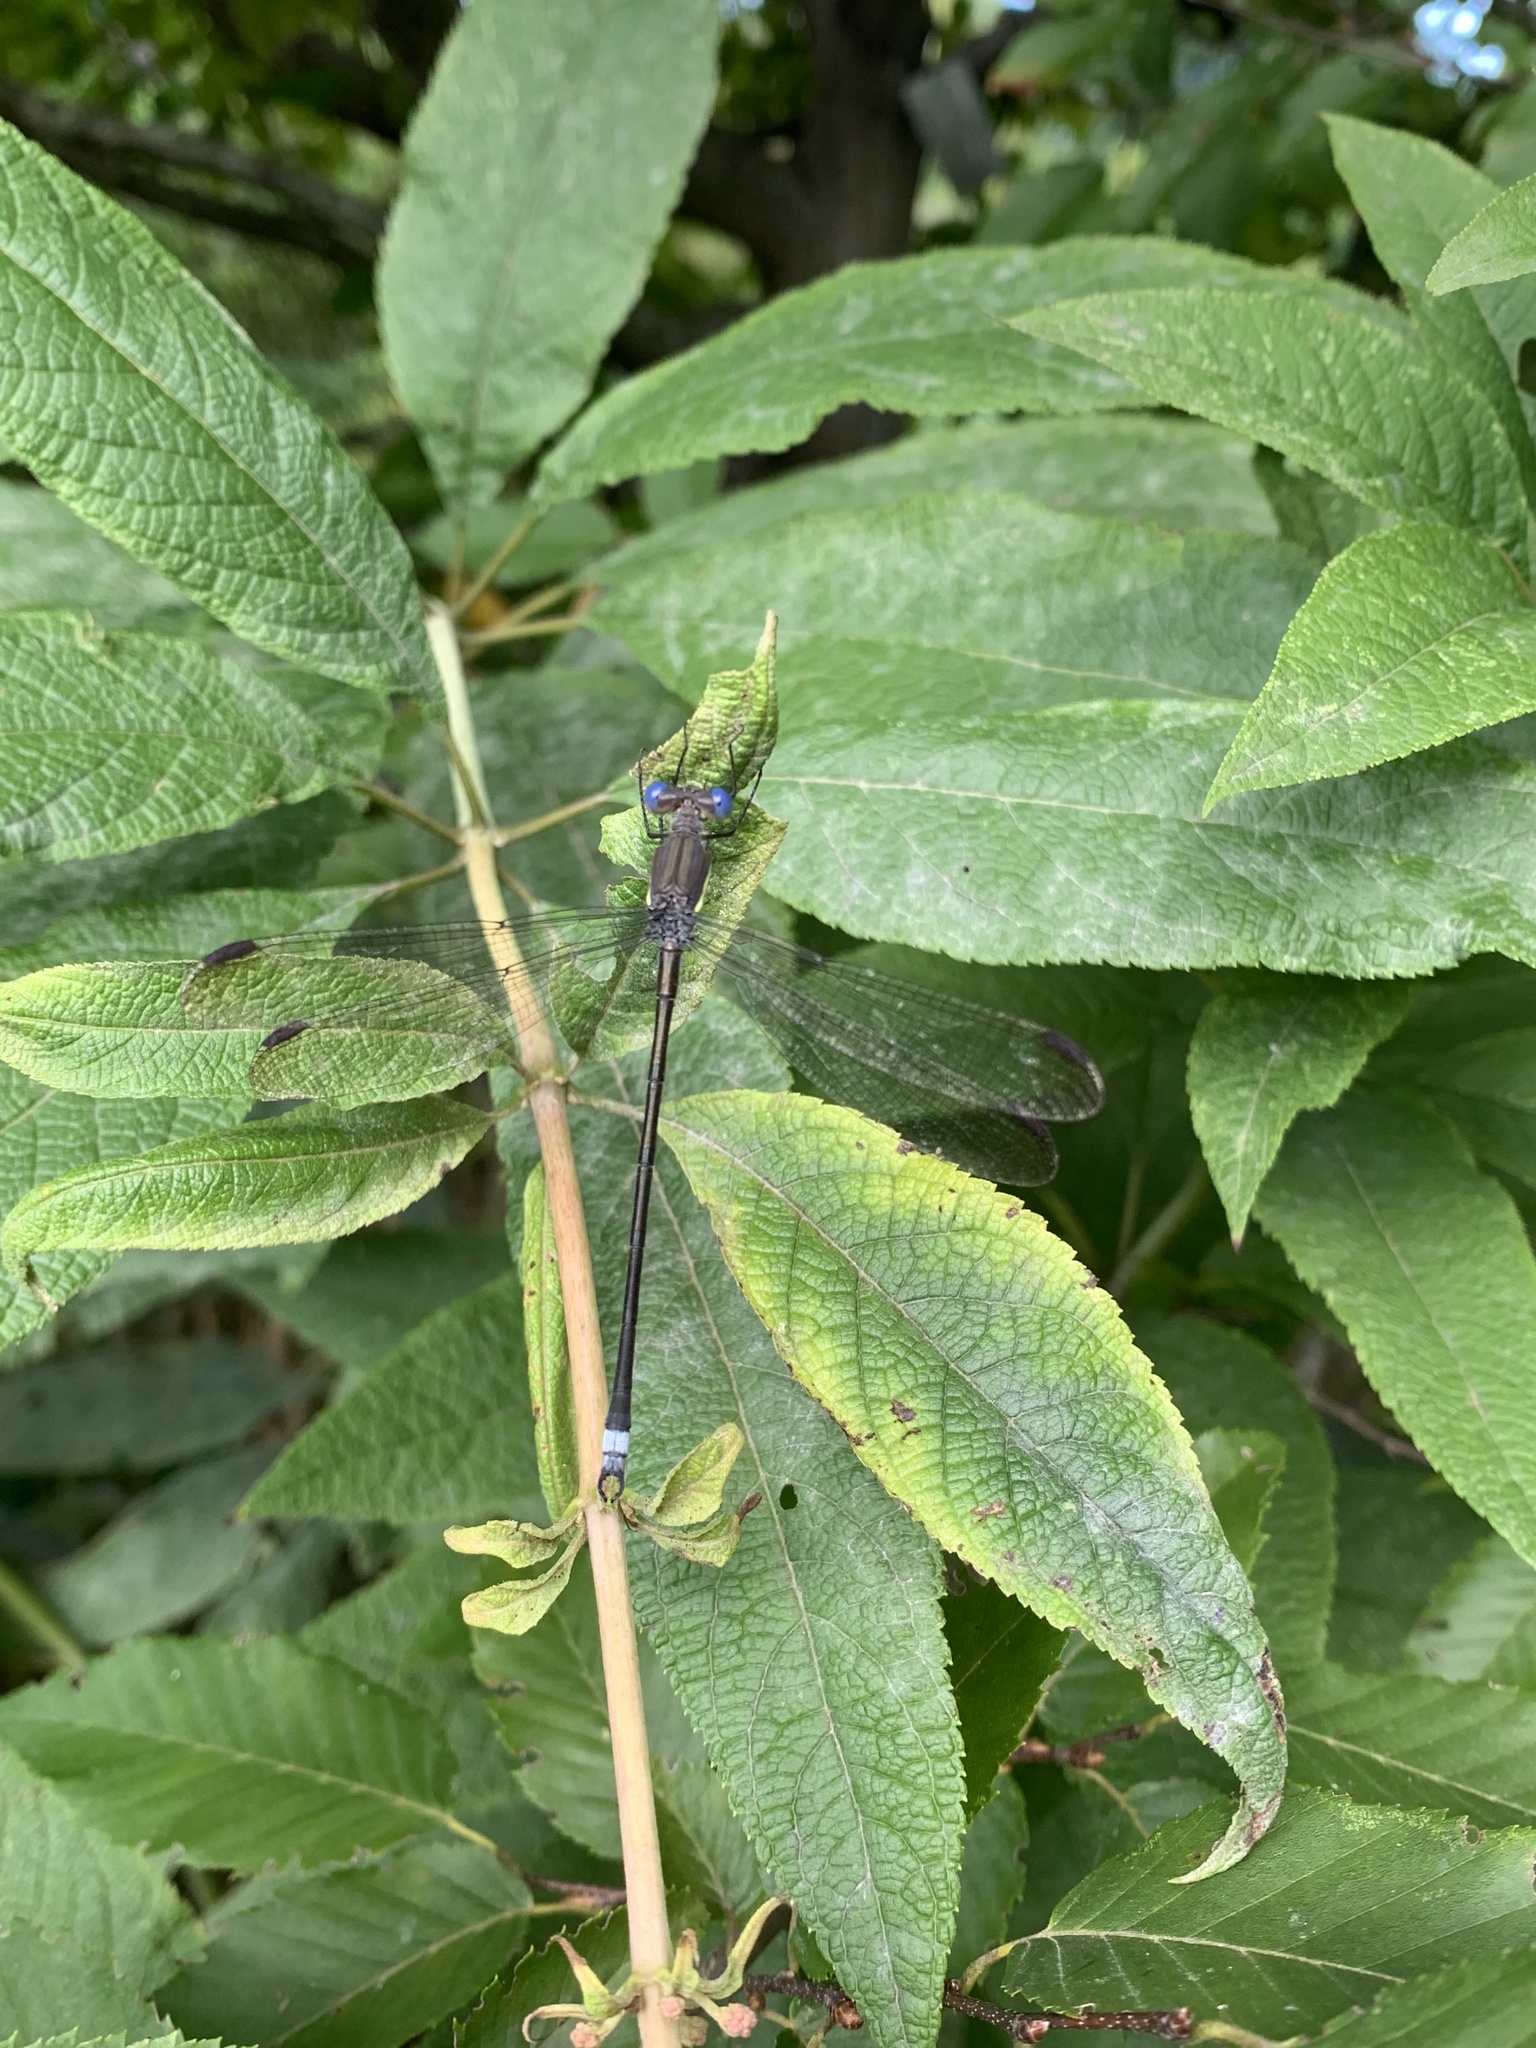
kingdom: Animalia
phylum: Arthropoda
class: Insecta
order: Odonata
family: Lestidae
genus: Archilestes
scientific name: Archilestes grandis
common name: Great spreadwing
